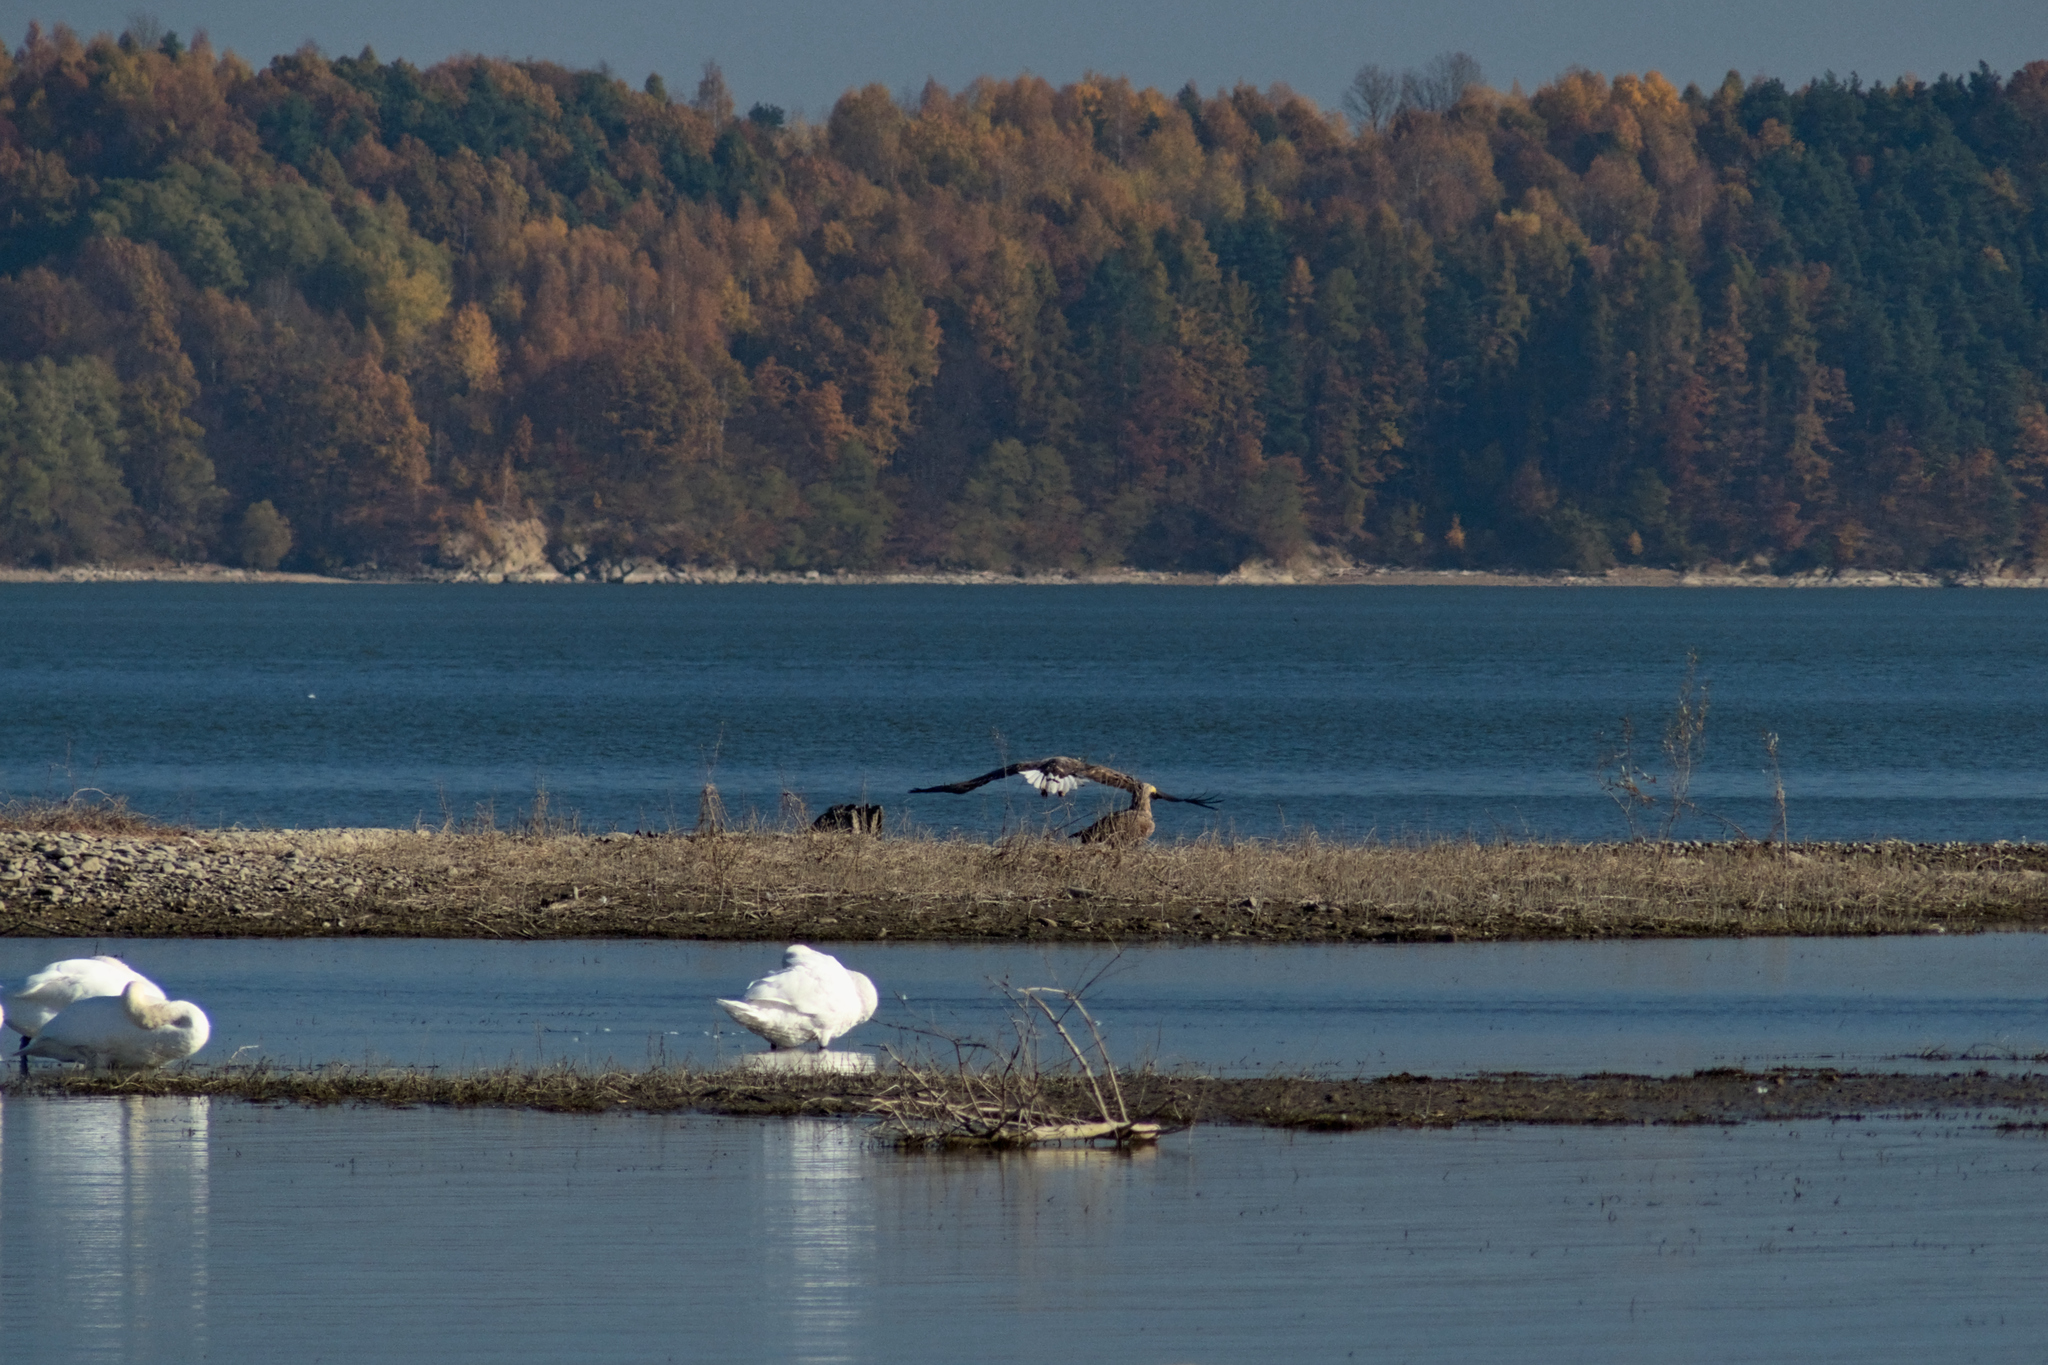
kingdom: Animalia
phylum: Chordata
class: Aves
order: Accipitriformes
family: Accipitridae
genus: Haliaeetus
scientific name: Haliaeetus albicilla
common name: White-tailed eagle
